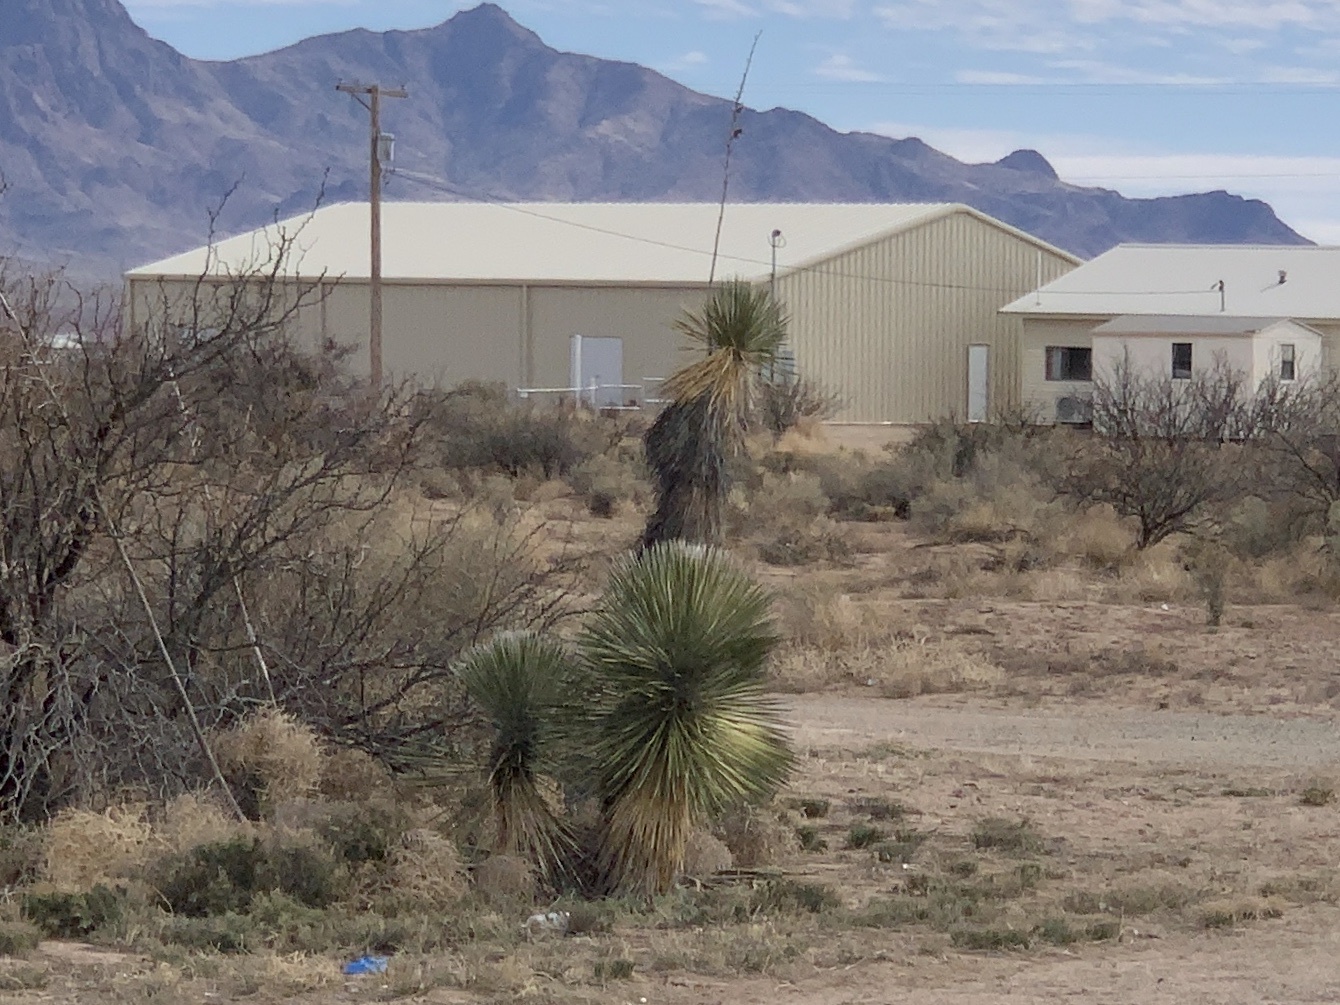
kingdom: Plantae
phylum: Tracheophyta
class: Liliopsida
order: Asparagales
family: Asparagaceae
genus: Yucca
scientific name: Yucca elata
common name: Palmella
